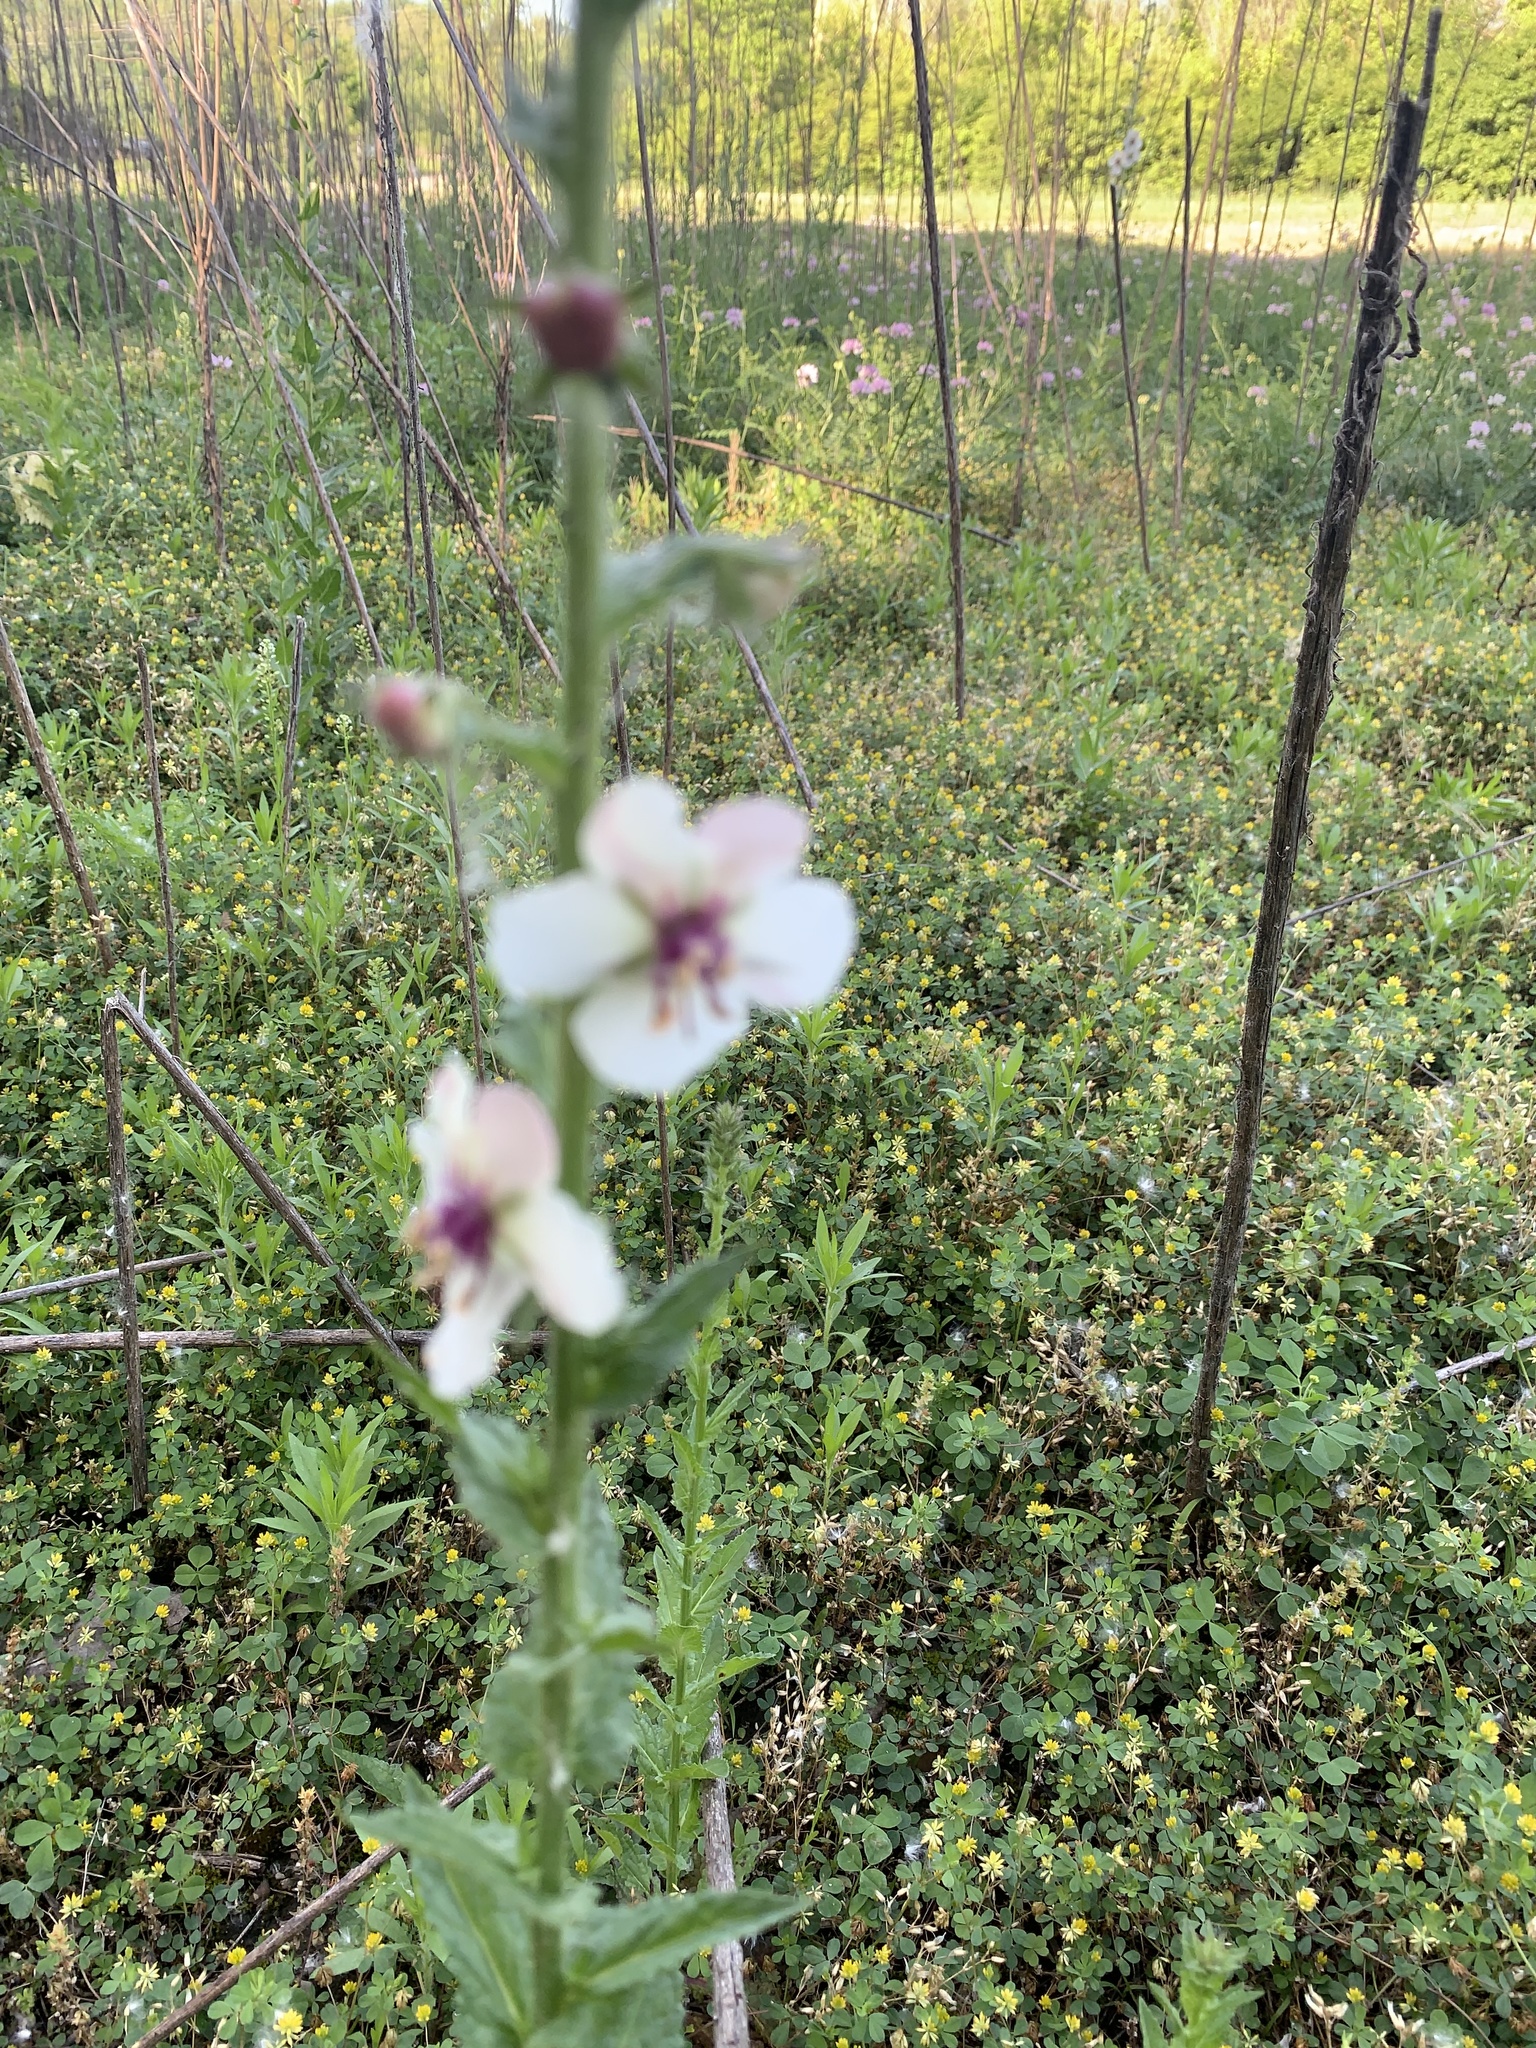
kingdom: Plantae
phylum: Tracheophyta
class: Magnoliopsida
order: Lamiales
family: Scrophulariaceae
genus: Verbascum
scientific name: Verbascum blattaria
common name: Moth mullein
